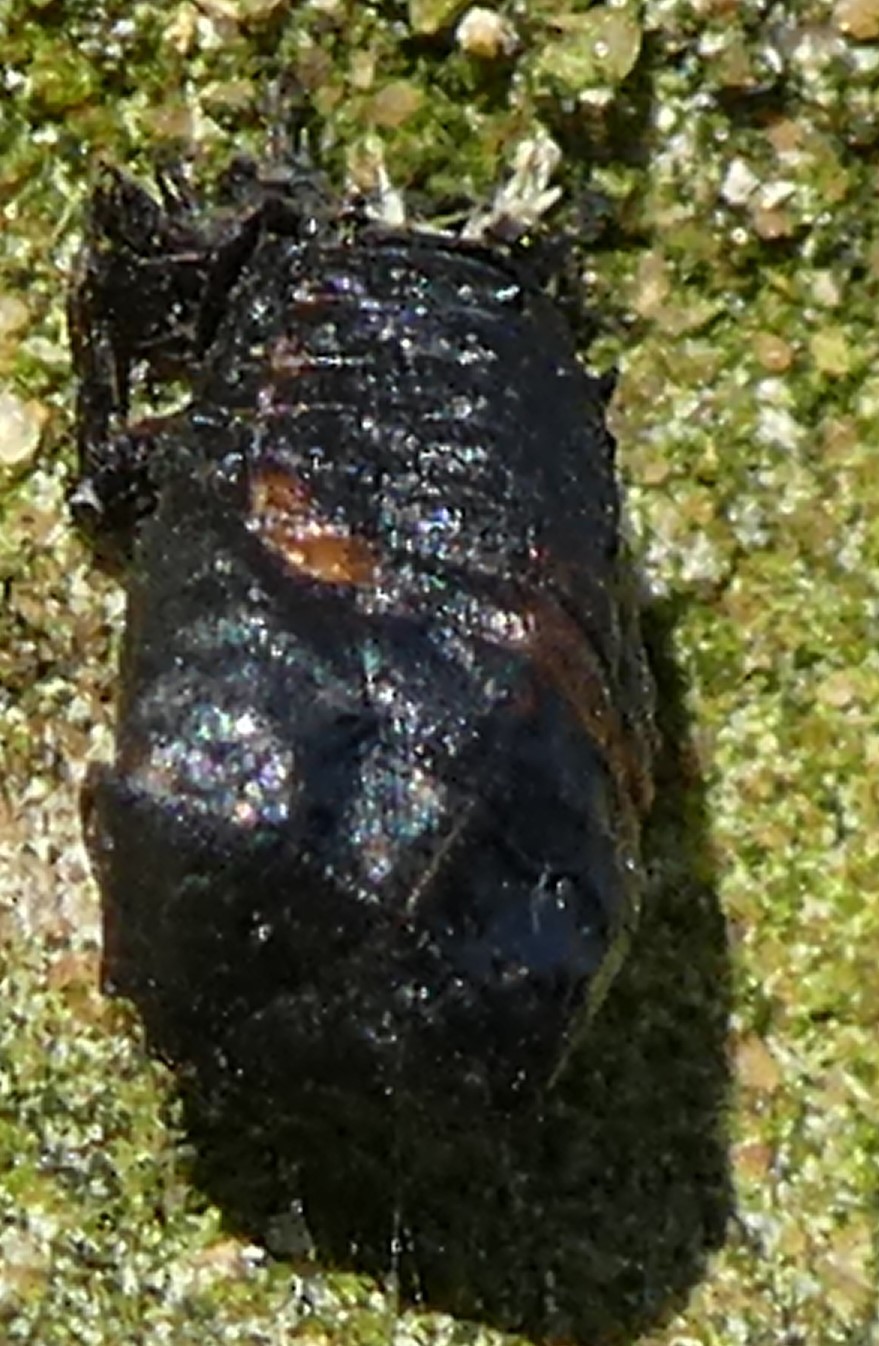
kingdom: Animalia
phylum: Arthropoda
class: Insecta
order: Coleoptera
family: Coccinellidae
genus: Harmonia
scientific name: Harmonia axyridis
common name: Harlequin ladybird
